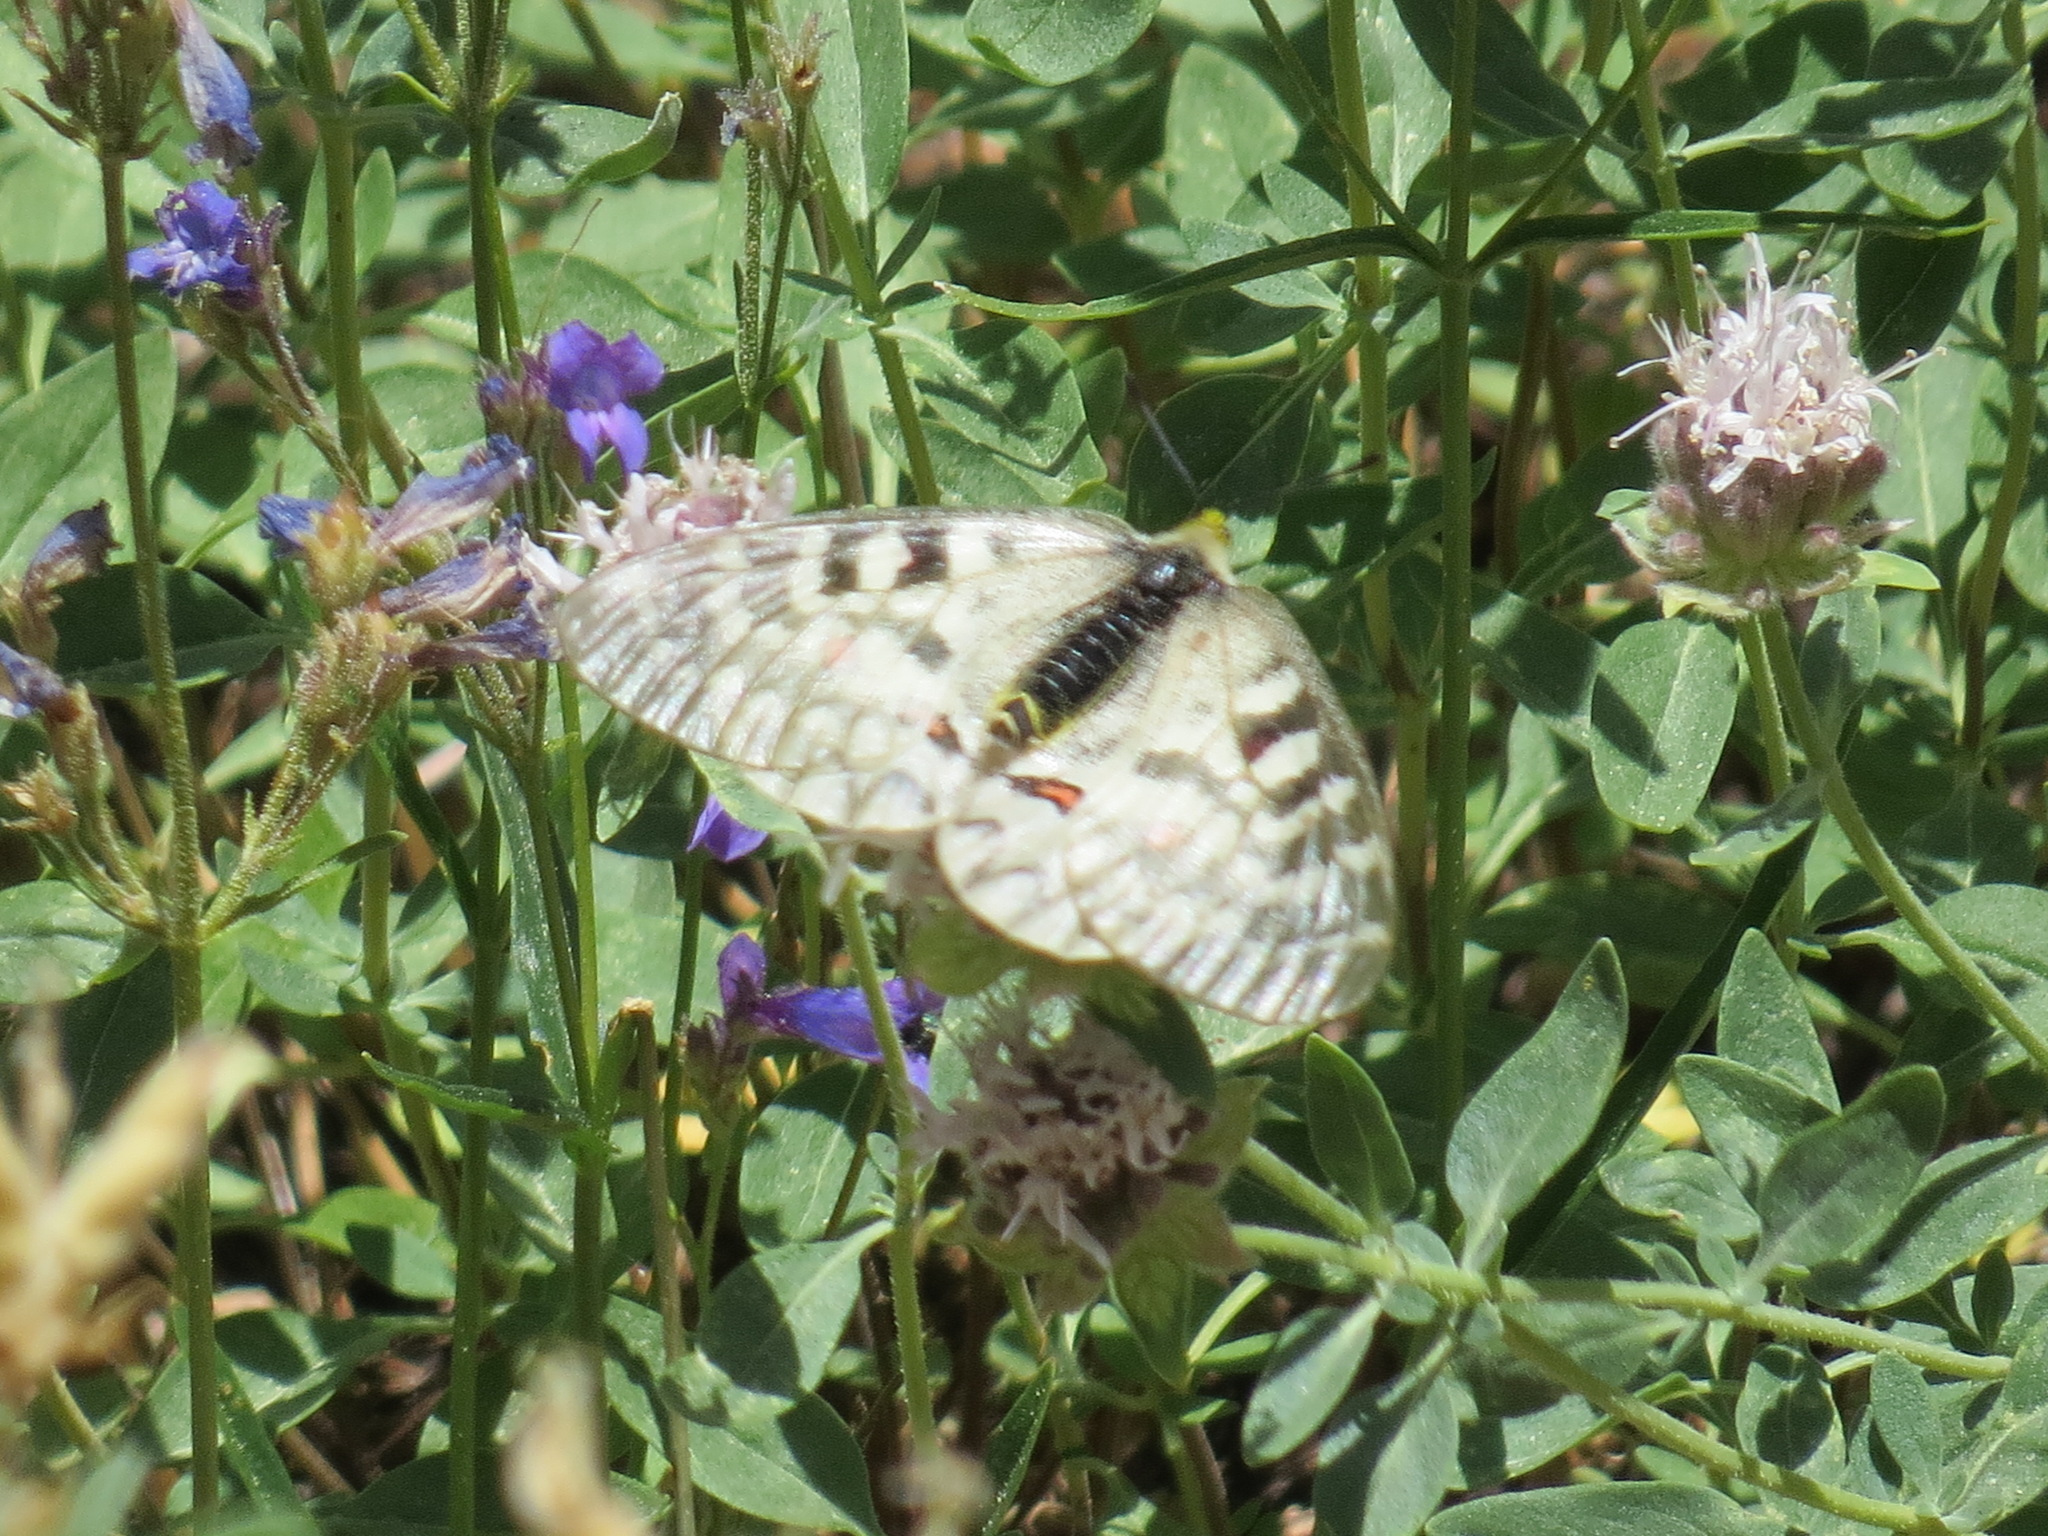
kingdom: Animalia
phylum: Arthropoda
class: Insecta
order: Lepidoptera
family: Papilionidae
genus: Parnassius
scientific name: Parnassius clodius
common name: American apollo
